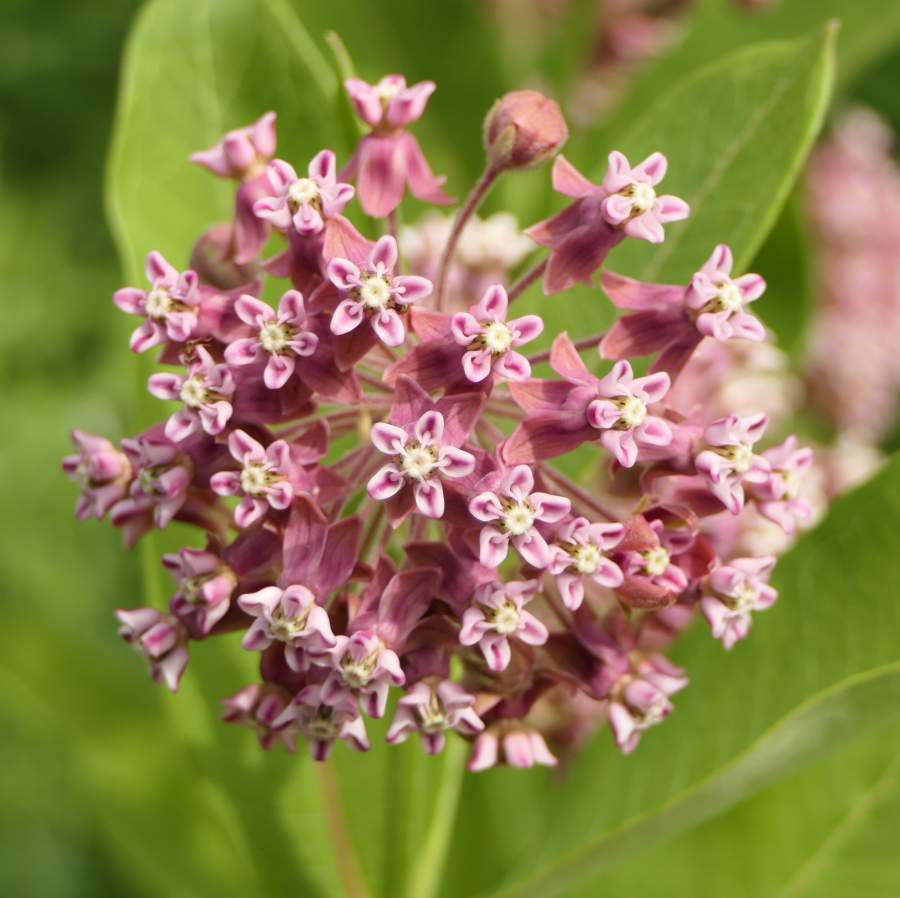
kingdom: Plantae
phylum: Tracheophyta
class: Magnoliopsida
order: Gentianales
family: Apocynaceae
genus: Asclepias
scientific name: Asclepias syriaca
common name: Common milkweed
